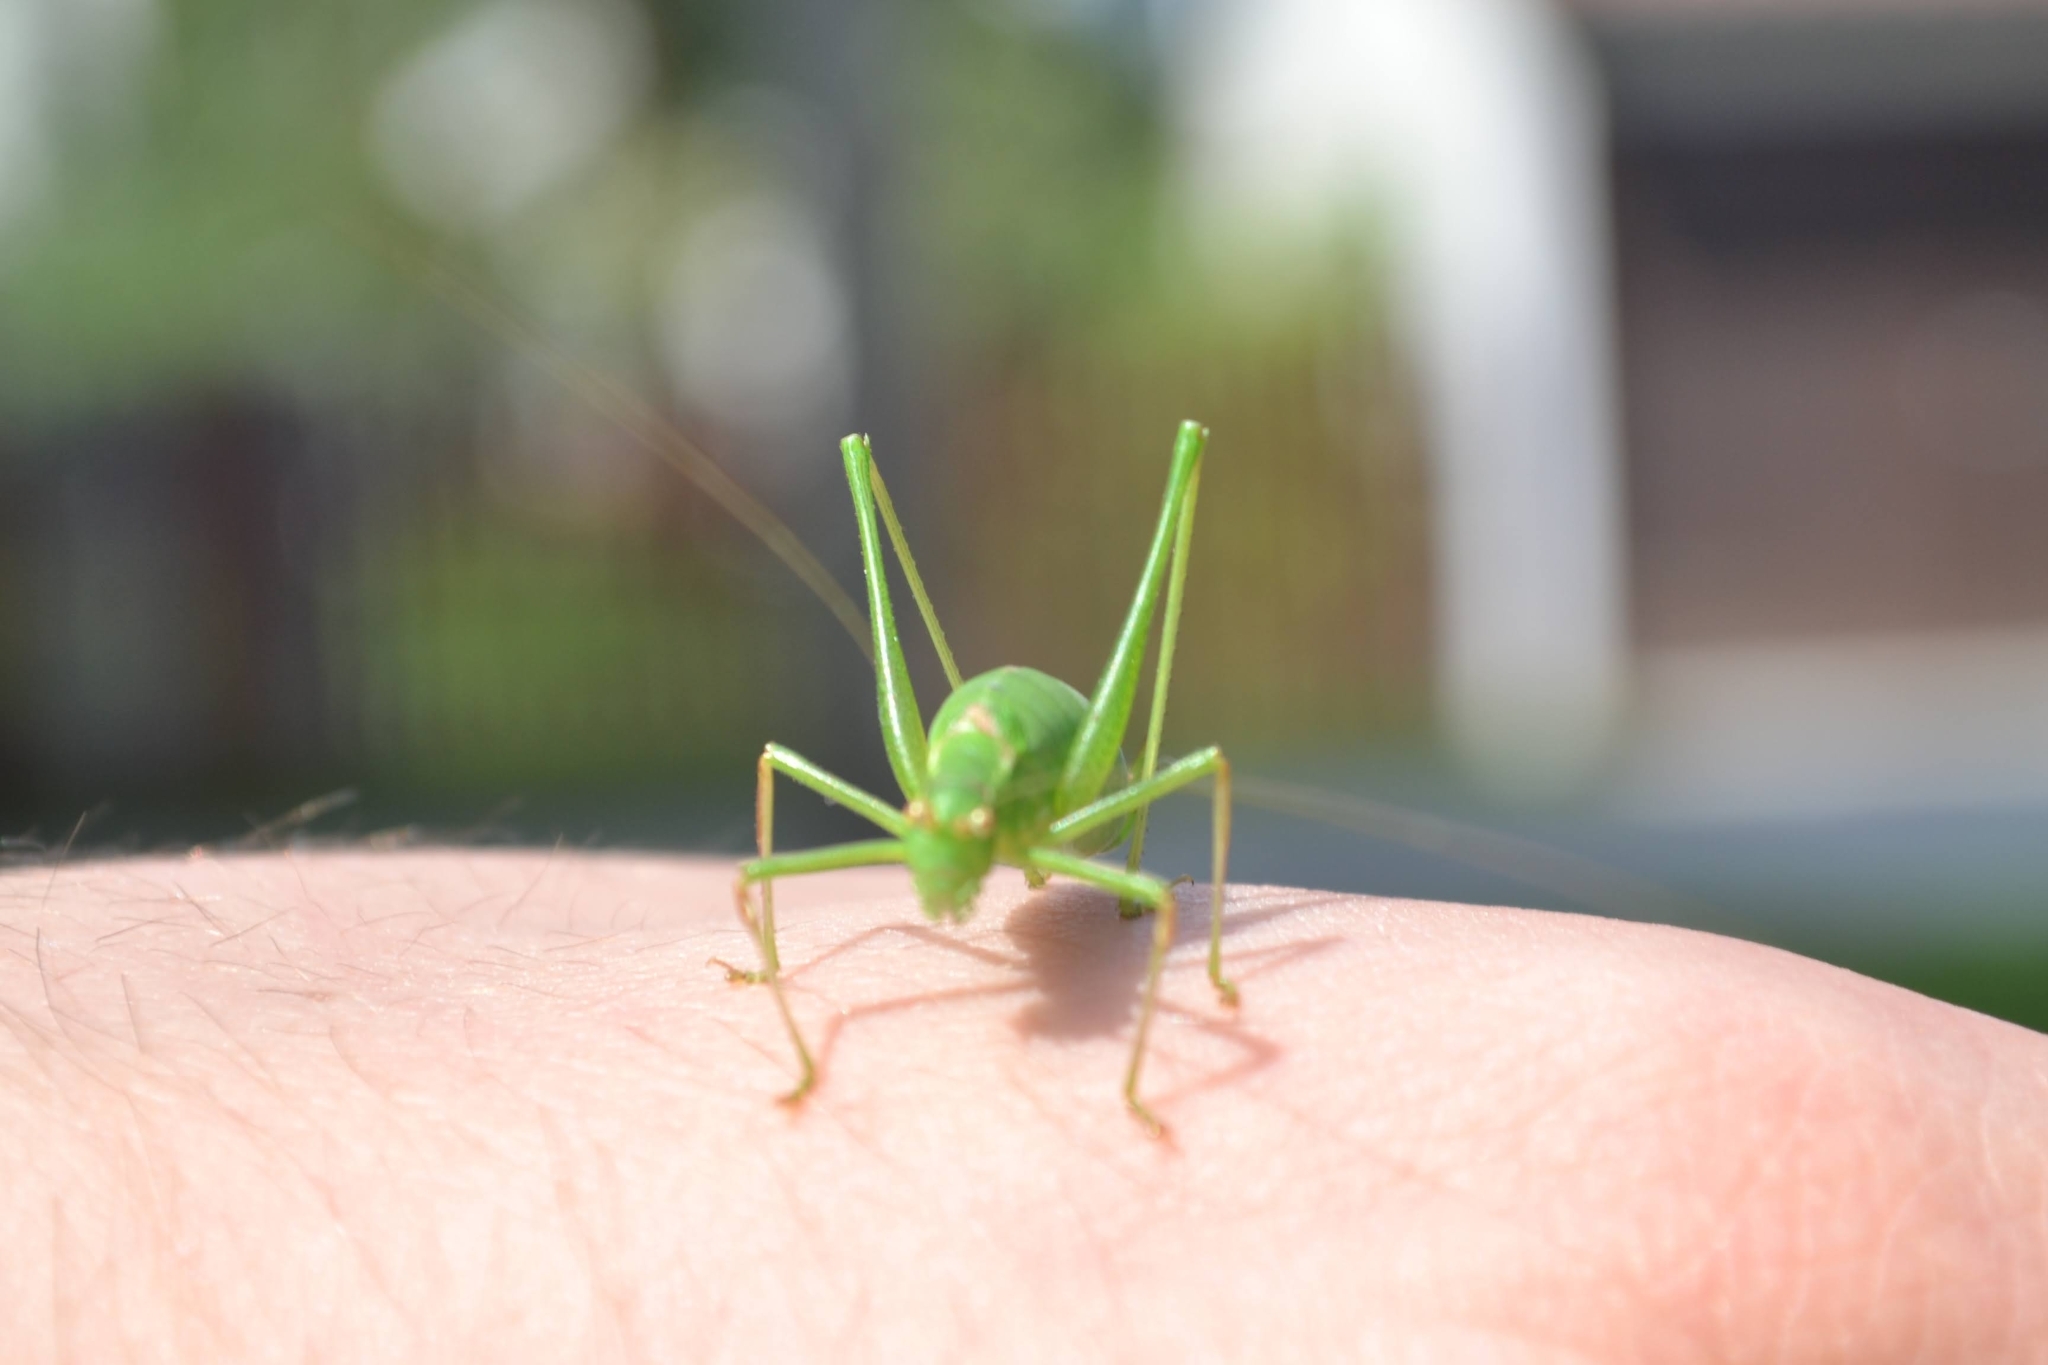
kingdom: Animalia
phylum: Arthropoda
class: Insecta
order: Orthoptera
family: Tettigoniidae
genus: Leptophyes
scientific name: Leptophyes punctatissima
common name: Speckled bush-cricket
